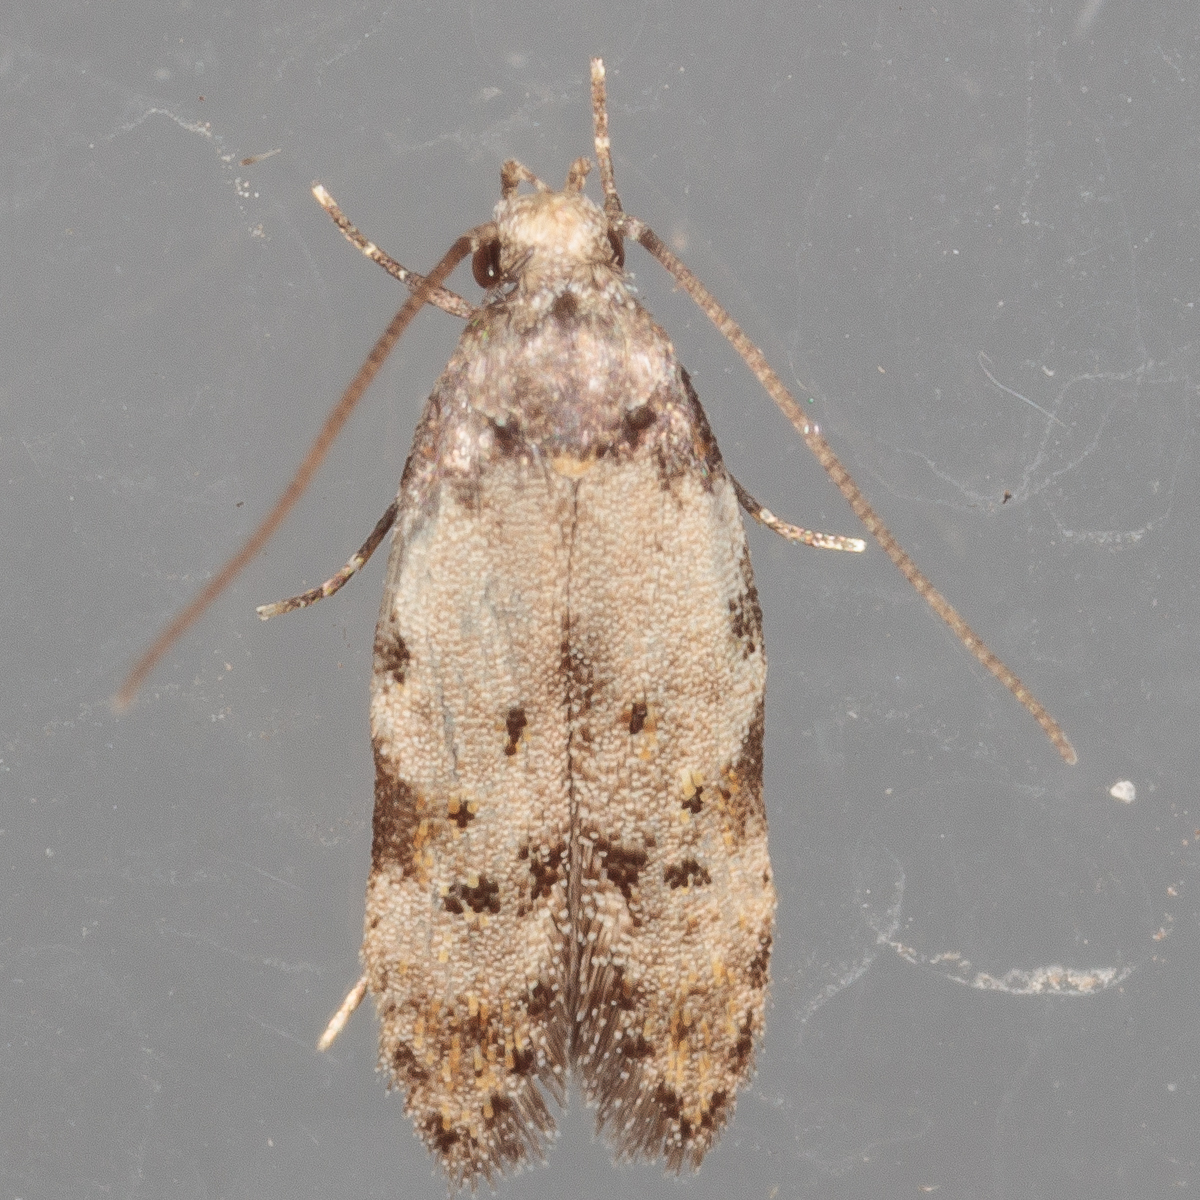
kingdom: Animalia
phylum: Arthropoda
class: Insecta
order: Lepidoptera
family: Autostichidae
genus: Taygete
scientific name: Taygete attributella
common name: Triangle-marked twirler moth
